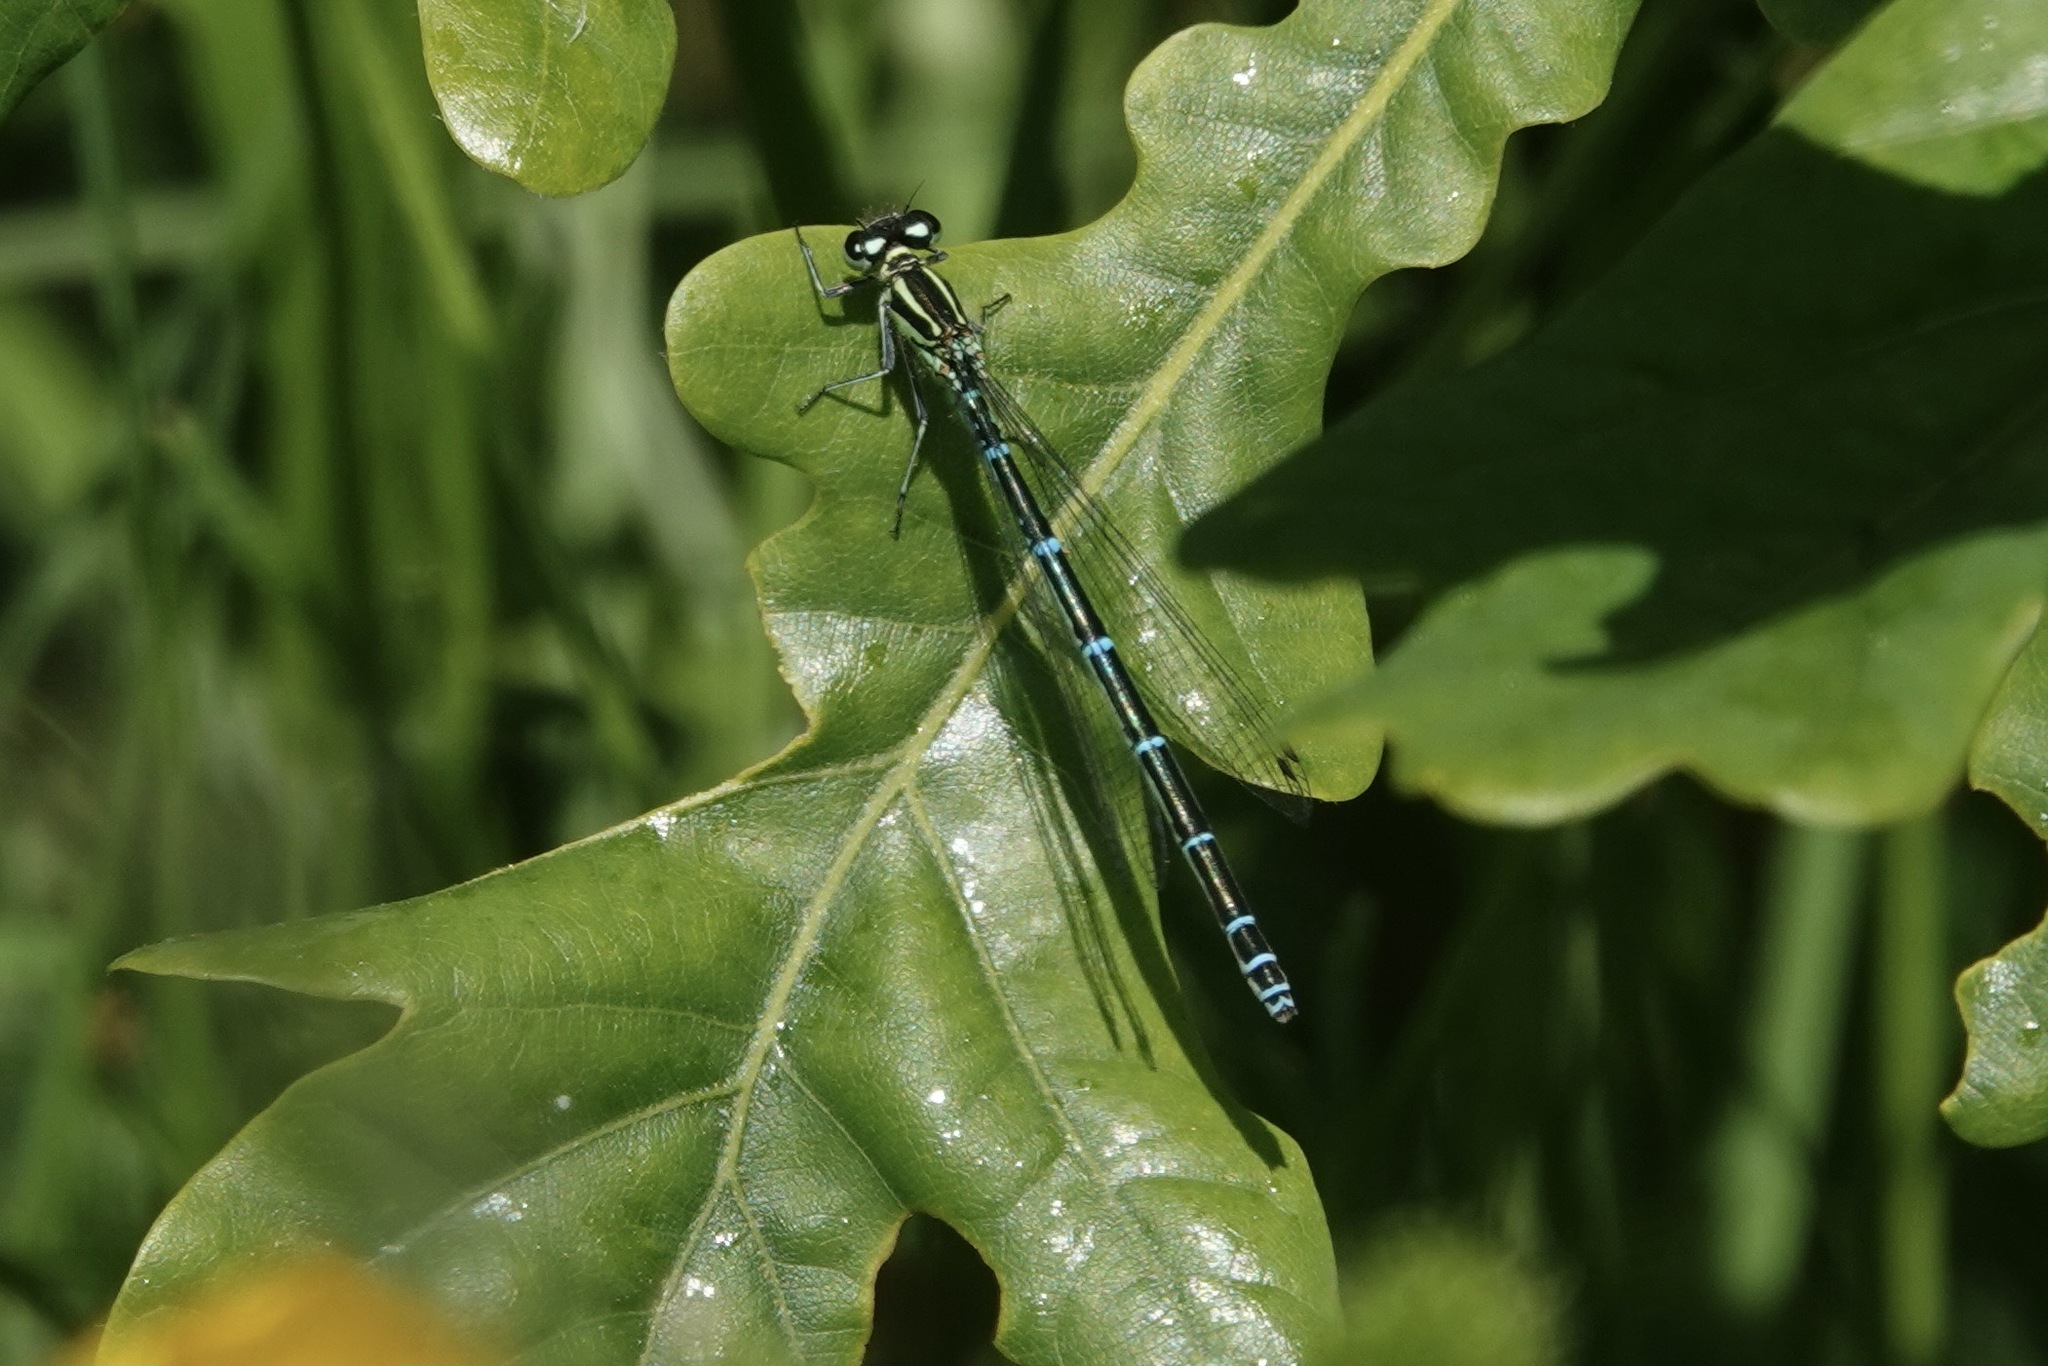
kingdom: Animalia
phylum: Arthropoda
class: Insecta
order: Odonata
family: Coenagrionidae
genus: Coenagrion
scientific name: Coenagrion puella
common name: Azure damselfly
